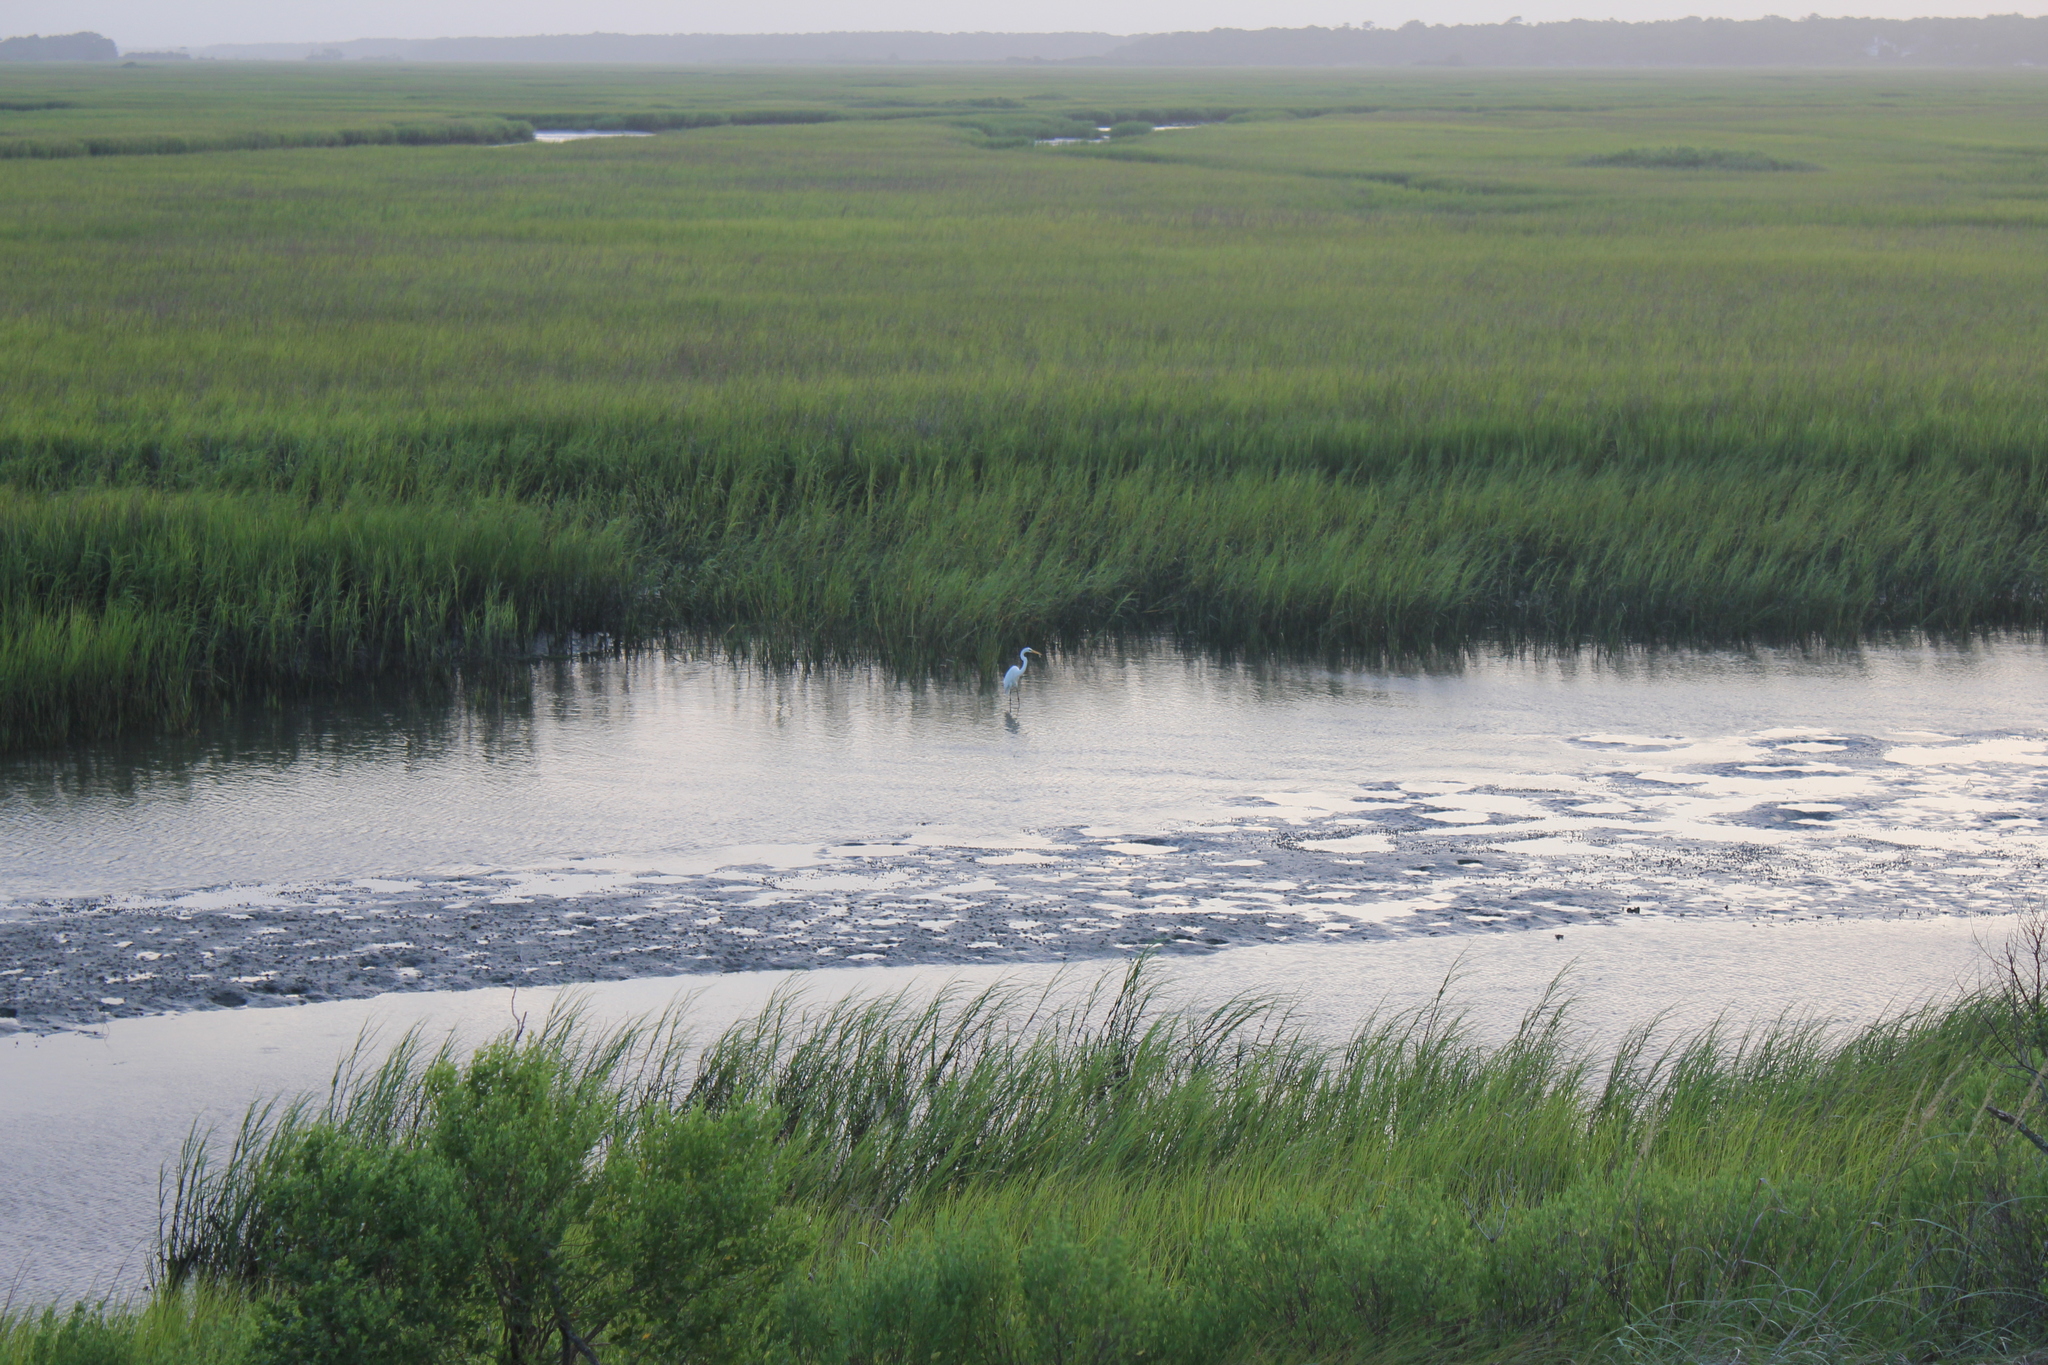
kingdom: Animalia
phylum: Chordata
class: Aves
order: Pelecaniformes
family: Ardeidae
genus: Ardea
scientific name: Ardea alba
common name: Great egret
